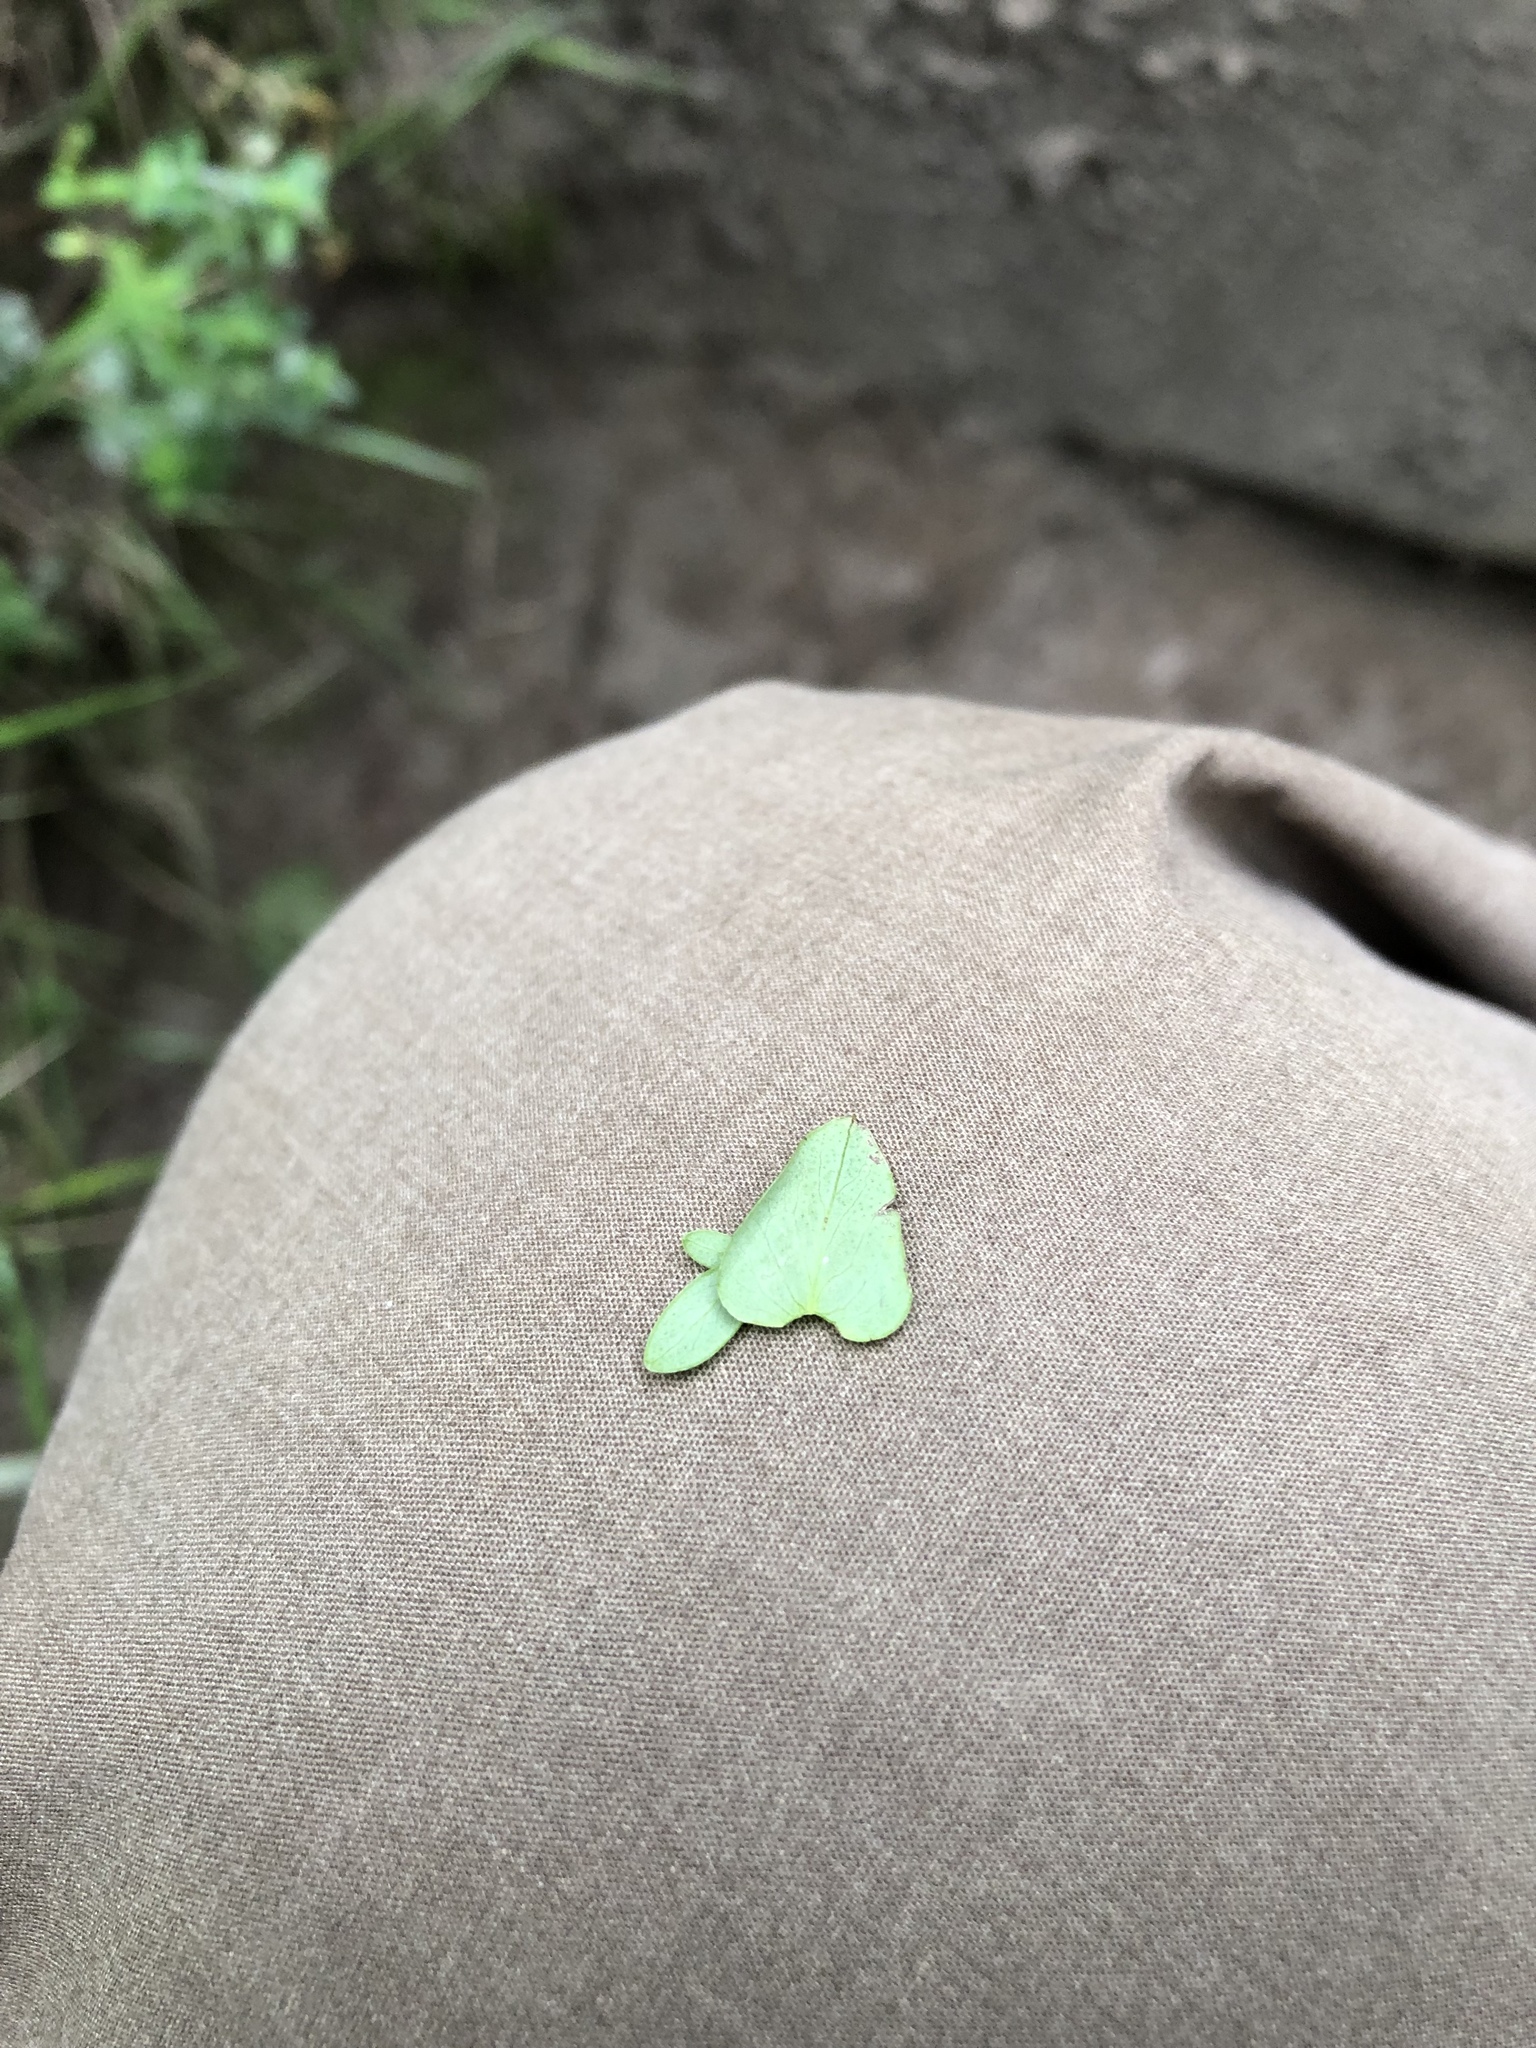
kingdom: Plantae
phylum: Tracheophyta
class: Magnoliopsida
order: Malpighiales
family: Hypericaceae
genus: Hypericum
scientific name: Hypericum pulchrum
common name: Slender st. john's-wort
